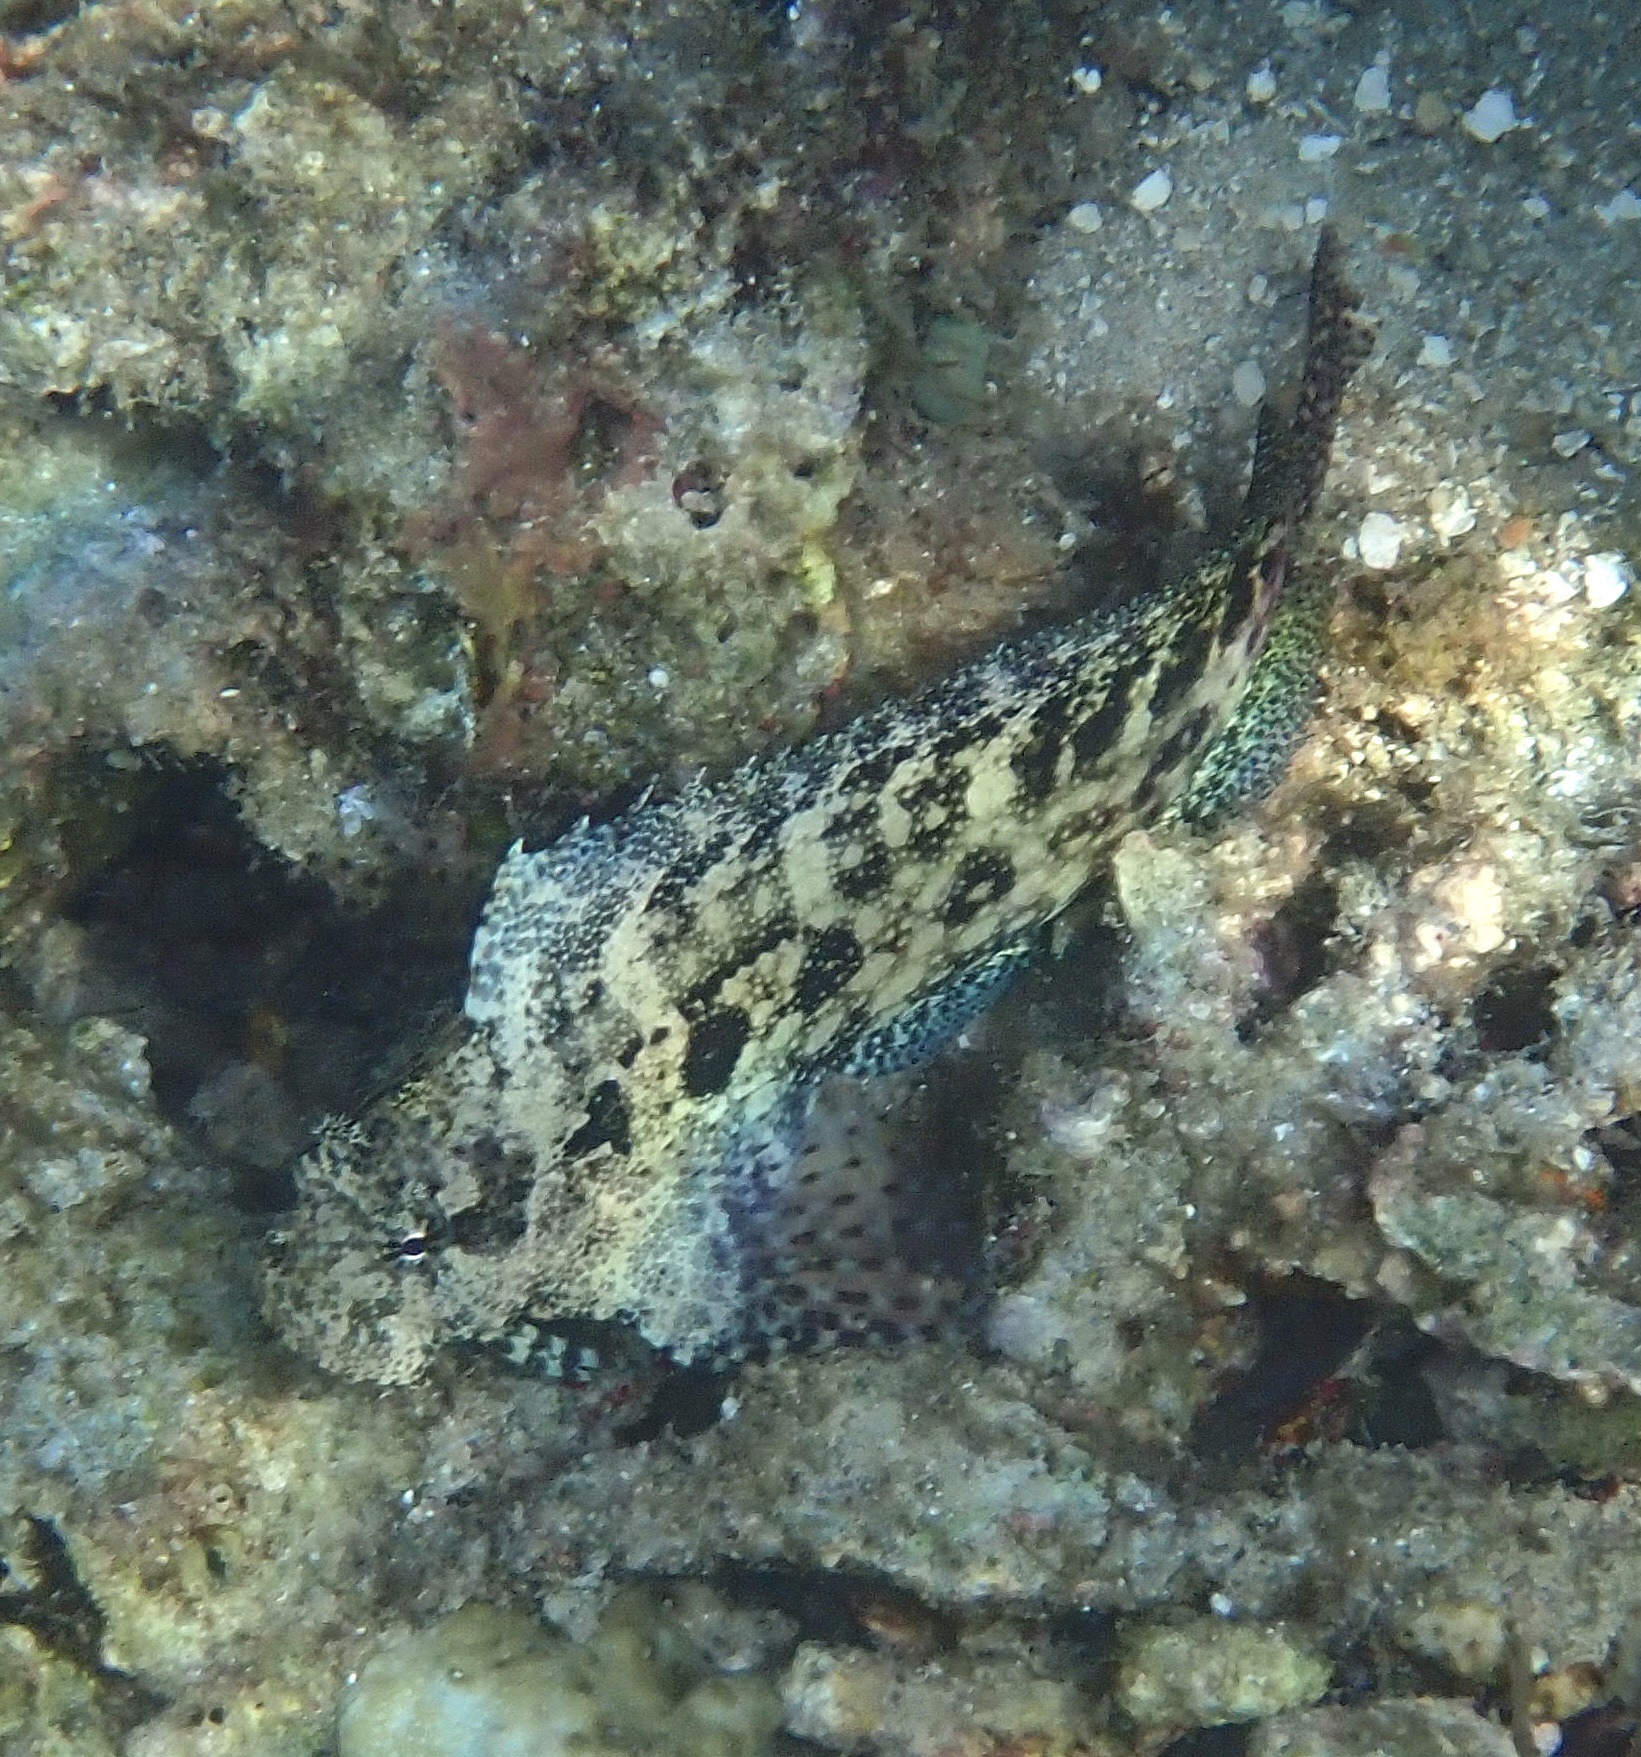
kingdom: Animalia
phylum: Chordata
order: Perciformes
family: Blenniidae
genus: Salarias
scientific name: Salarias ceramensis
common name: Seram blenny
